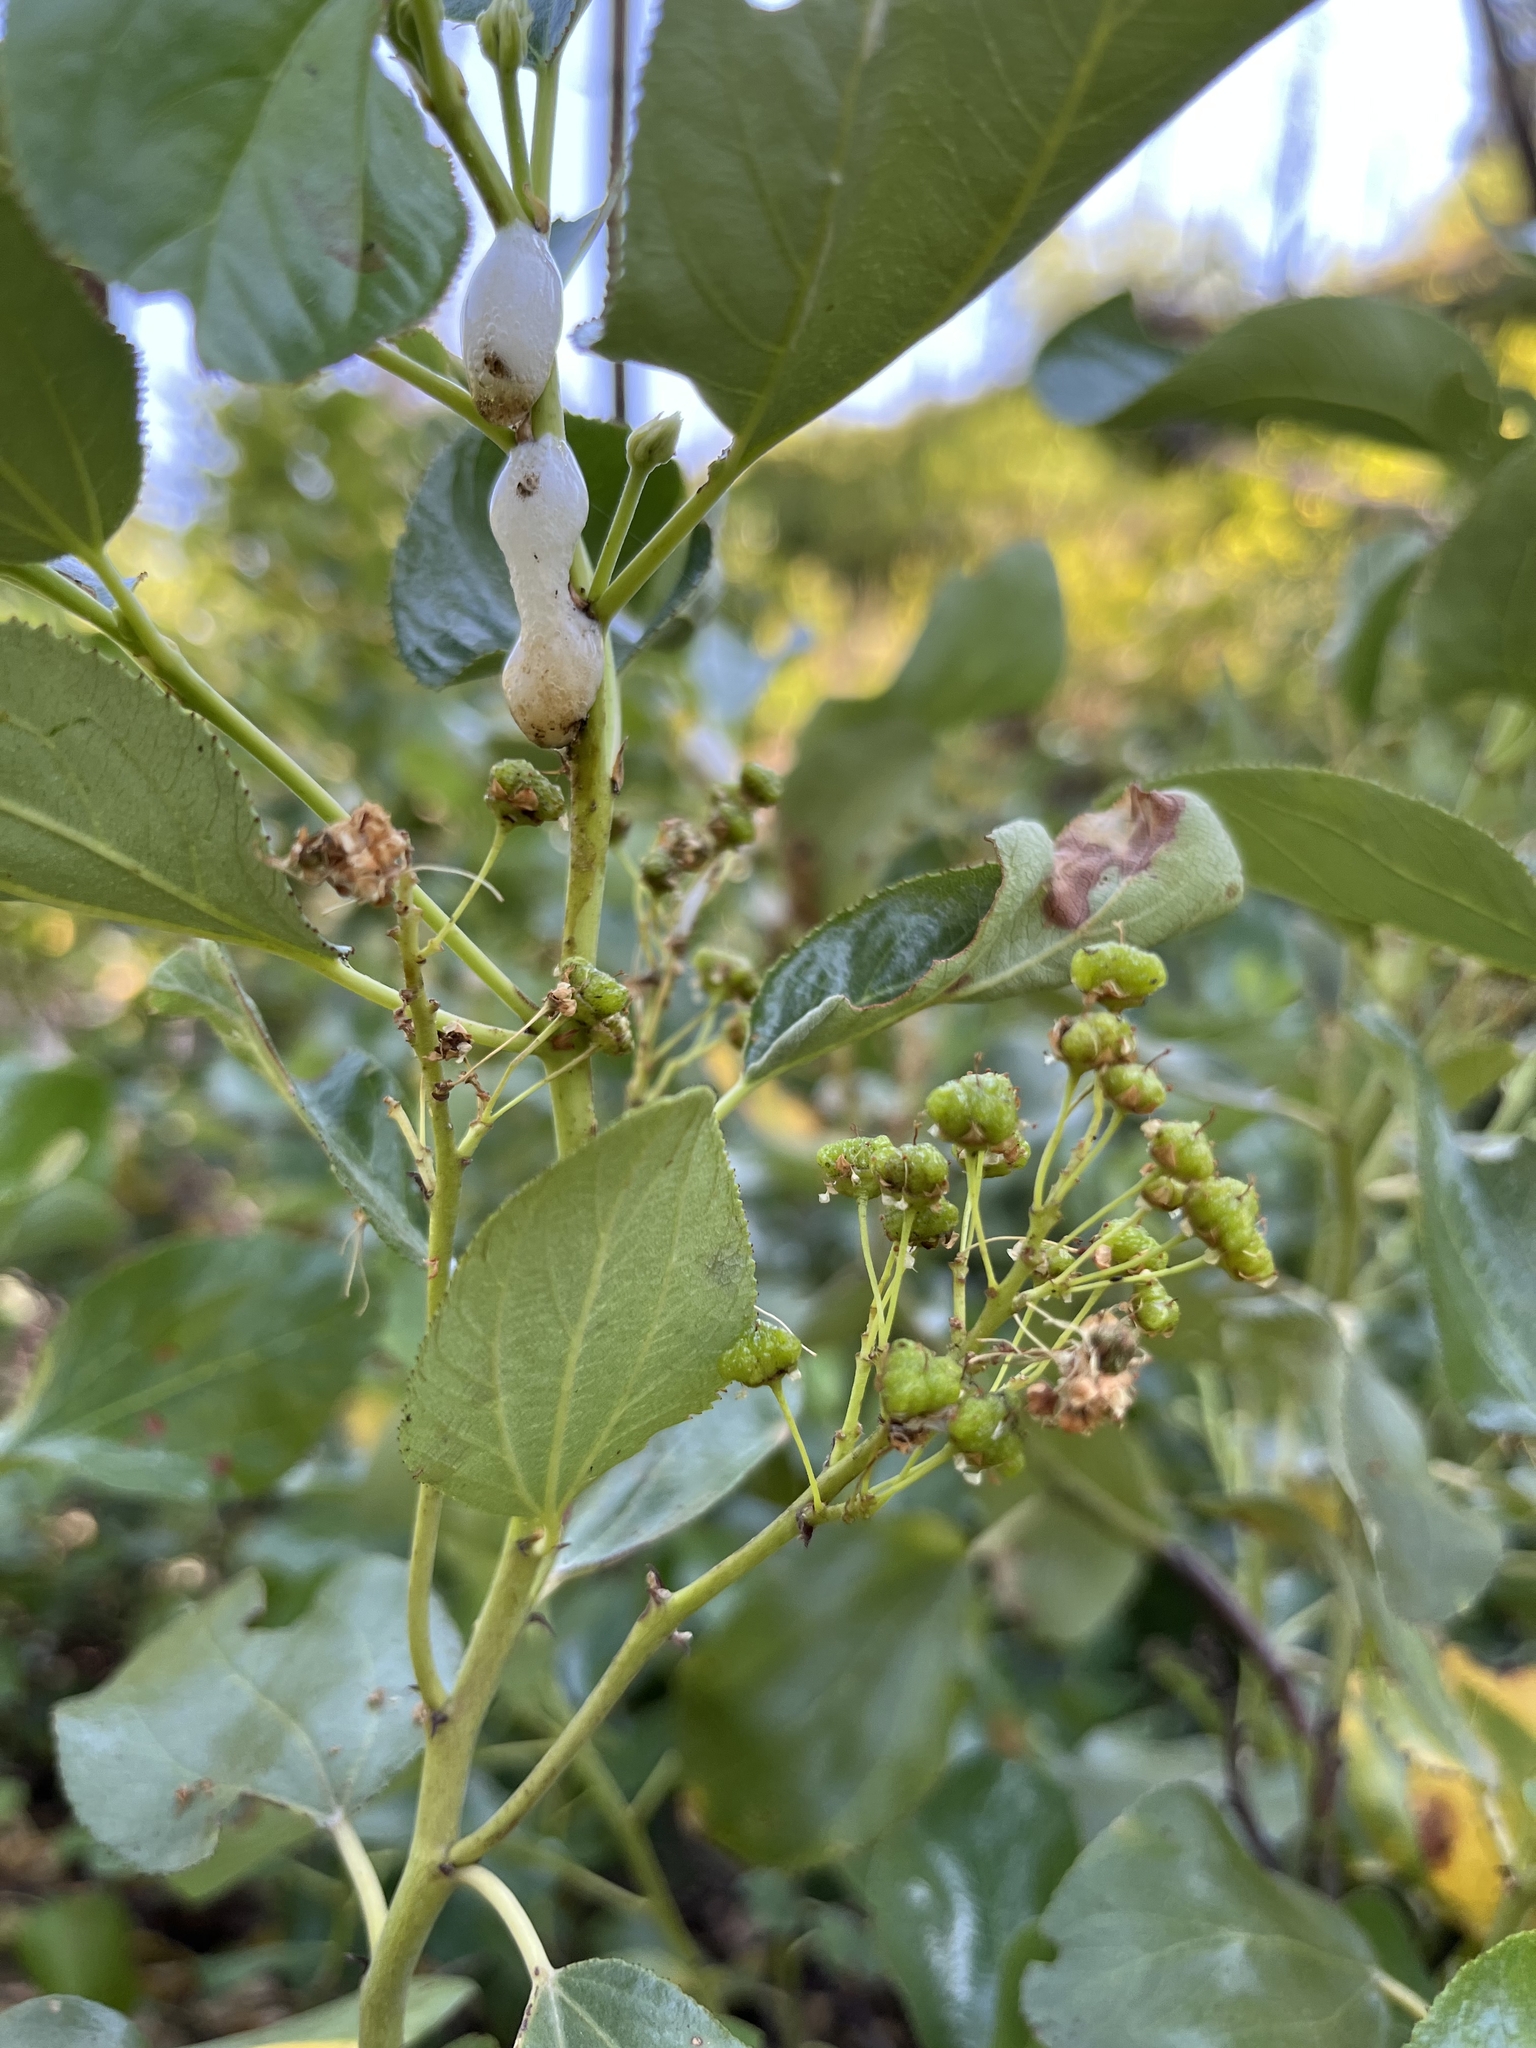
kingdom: Plantae
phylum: Tracheophyta
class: Magnoliopsida
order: Rosales
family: Rhamnaceae
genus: Ceanothus
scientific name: Ceanothus velutinus
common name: Snowbrush
